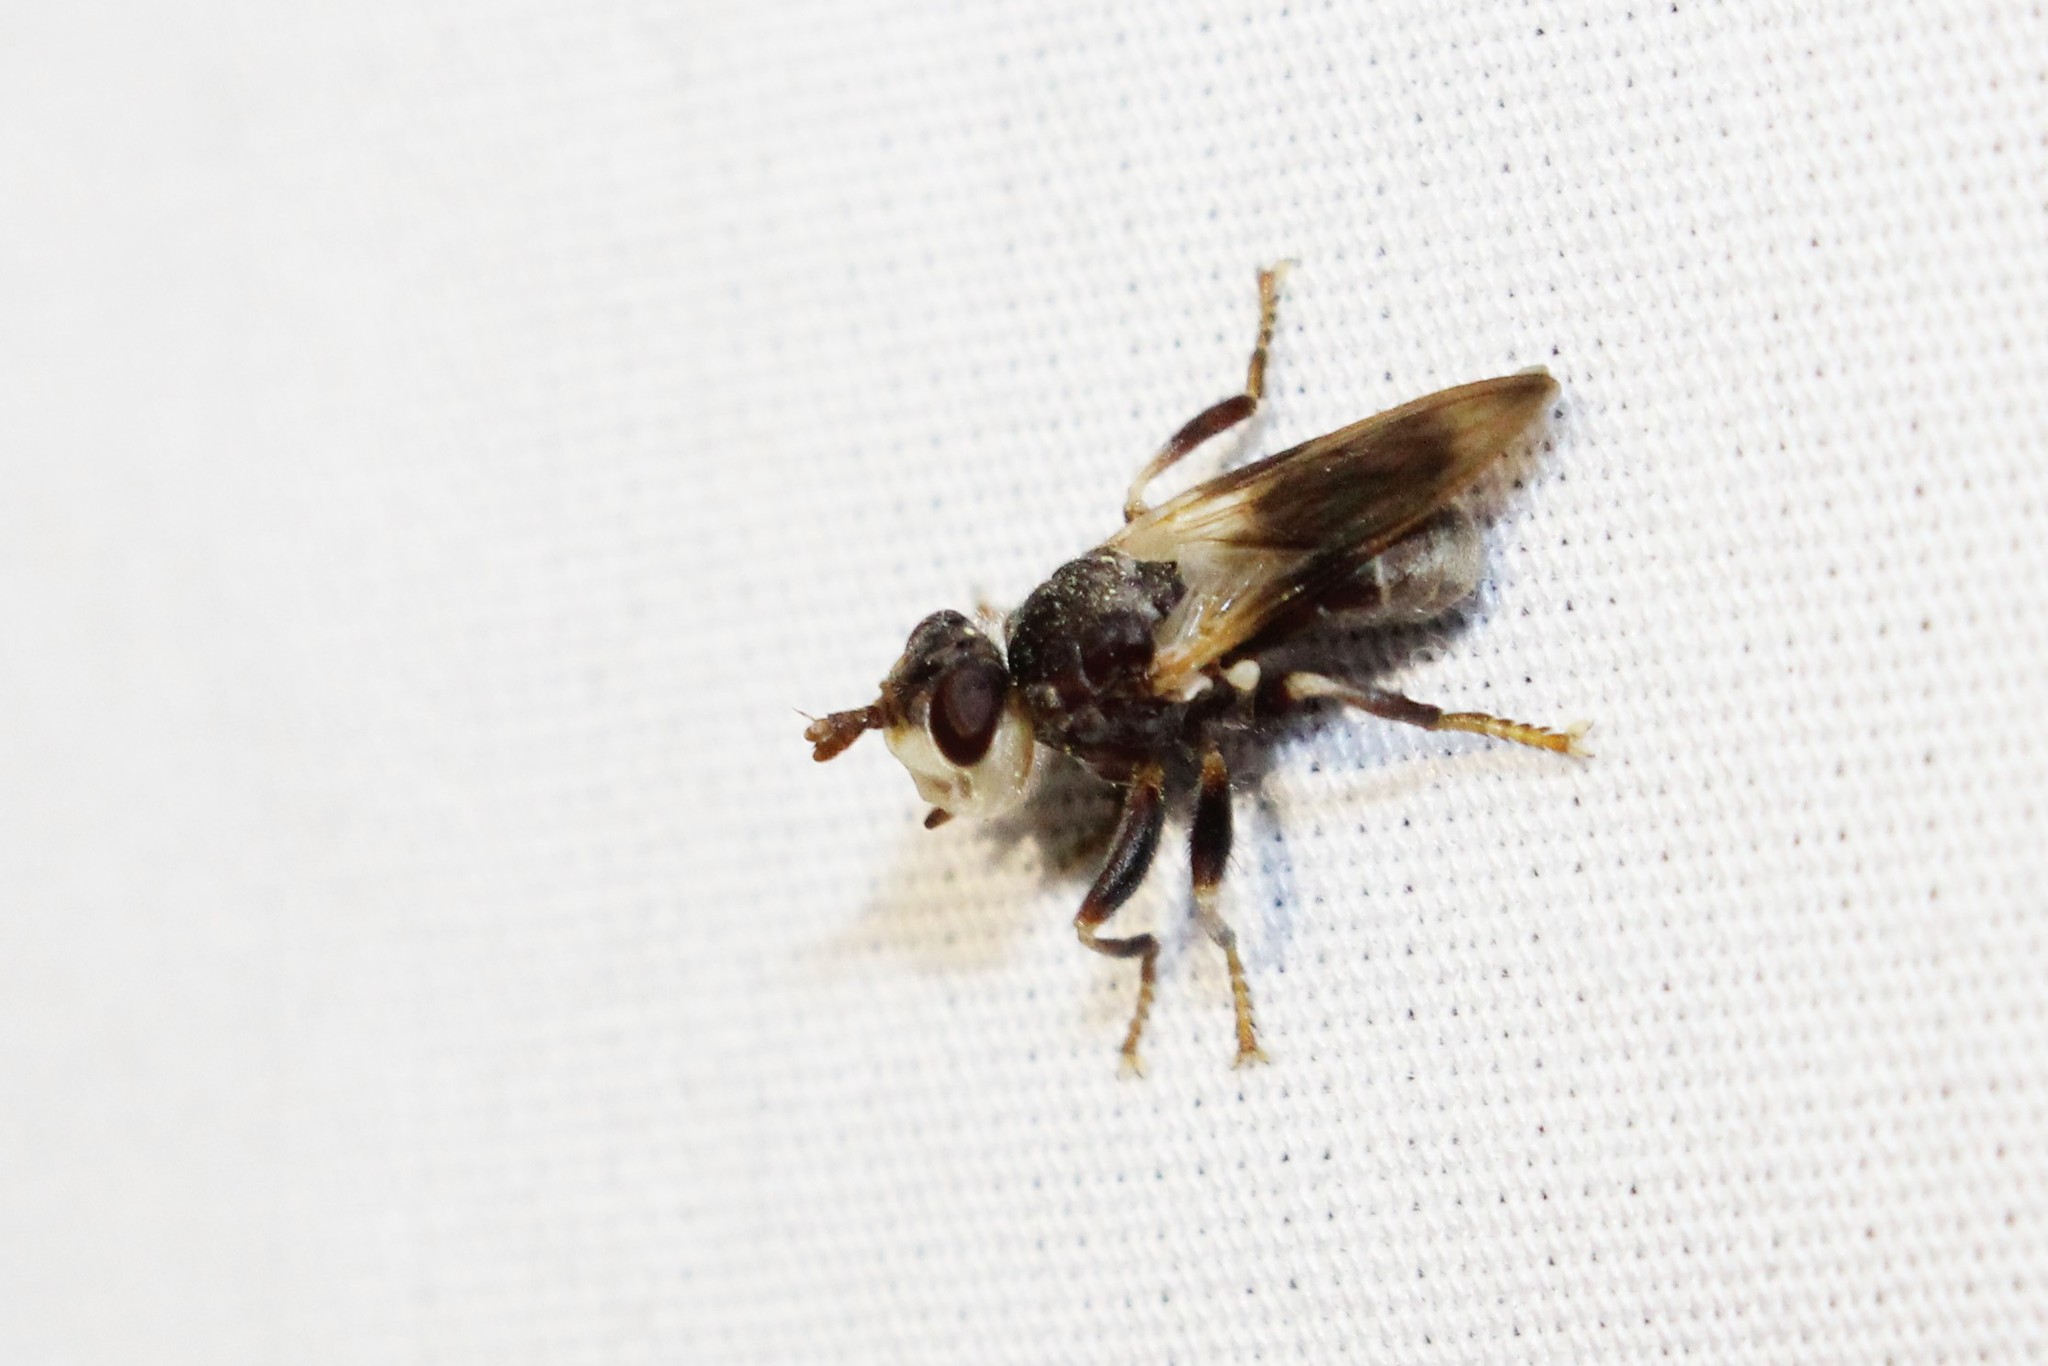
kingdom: Animalia
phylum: Arthropoda
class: Insecta
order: Diptera
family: Conopidae
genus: Myopa
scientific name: Myopa vesiculosa
